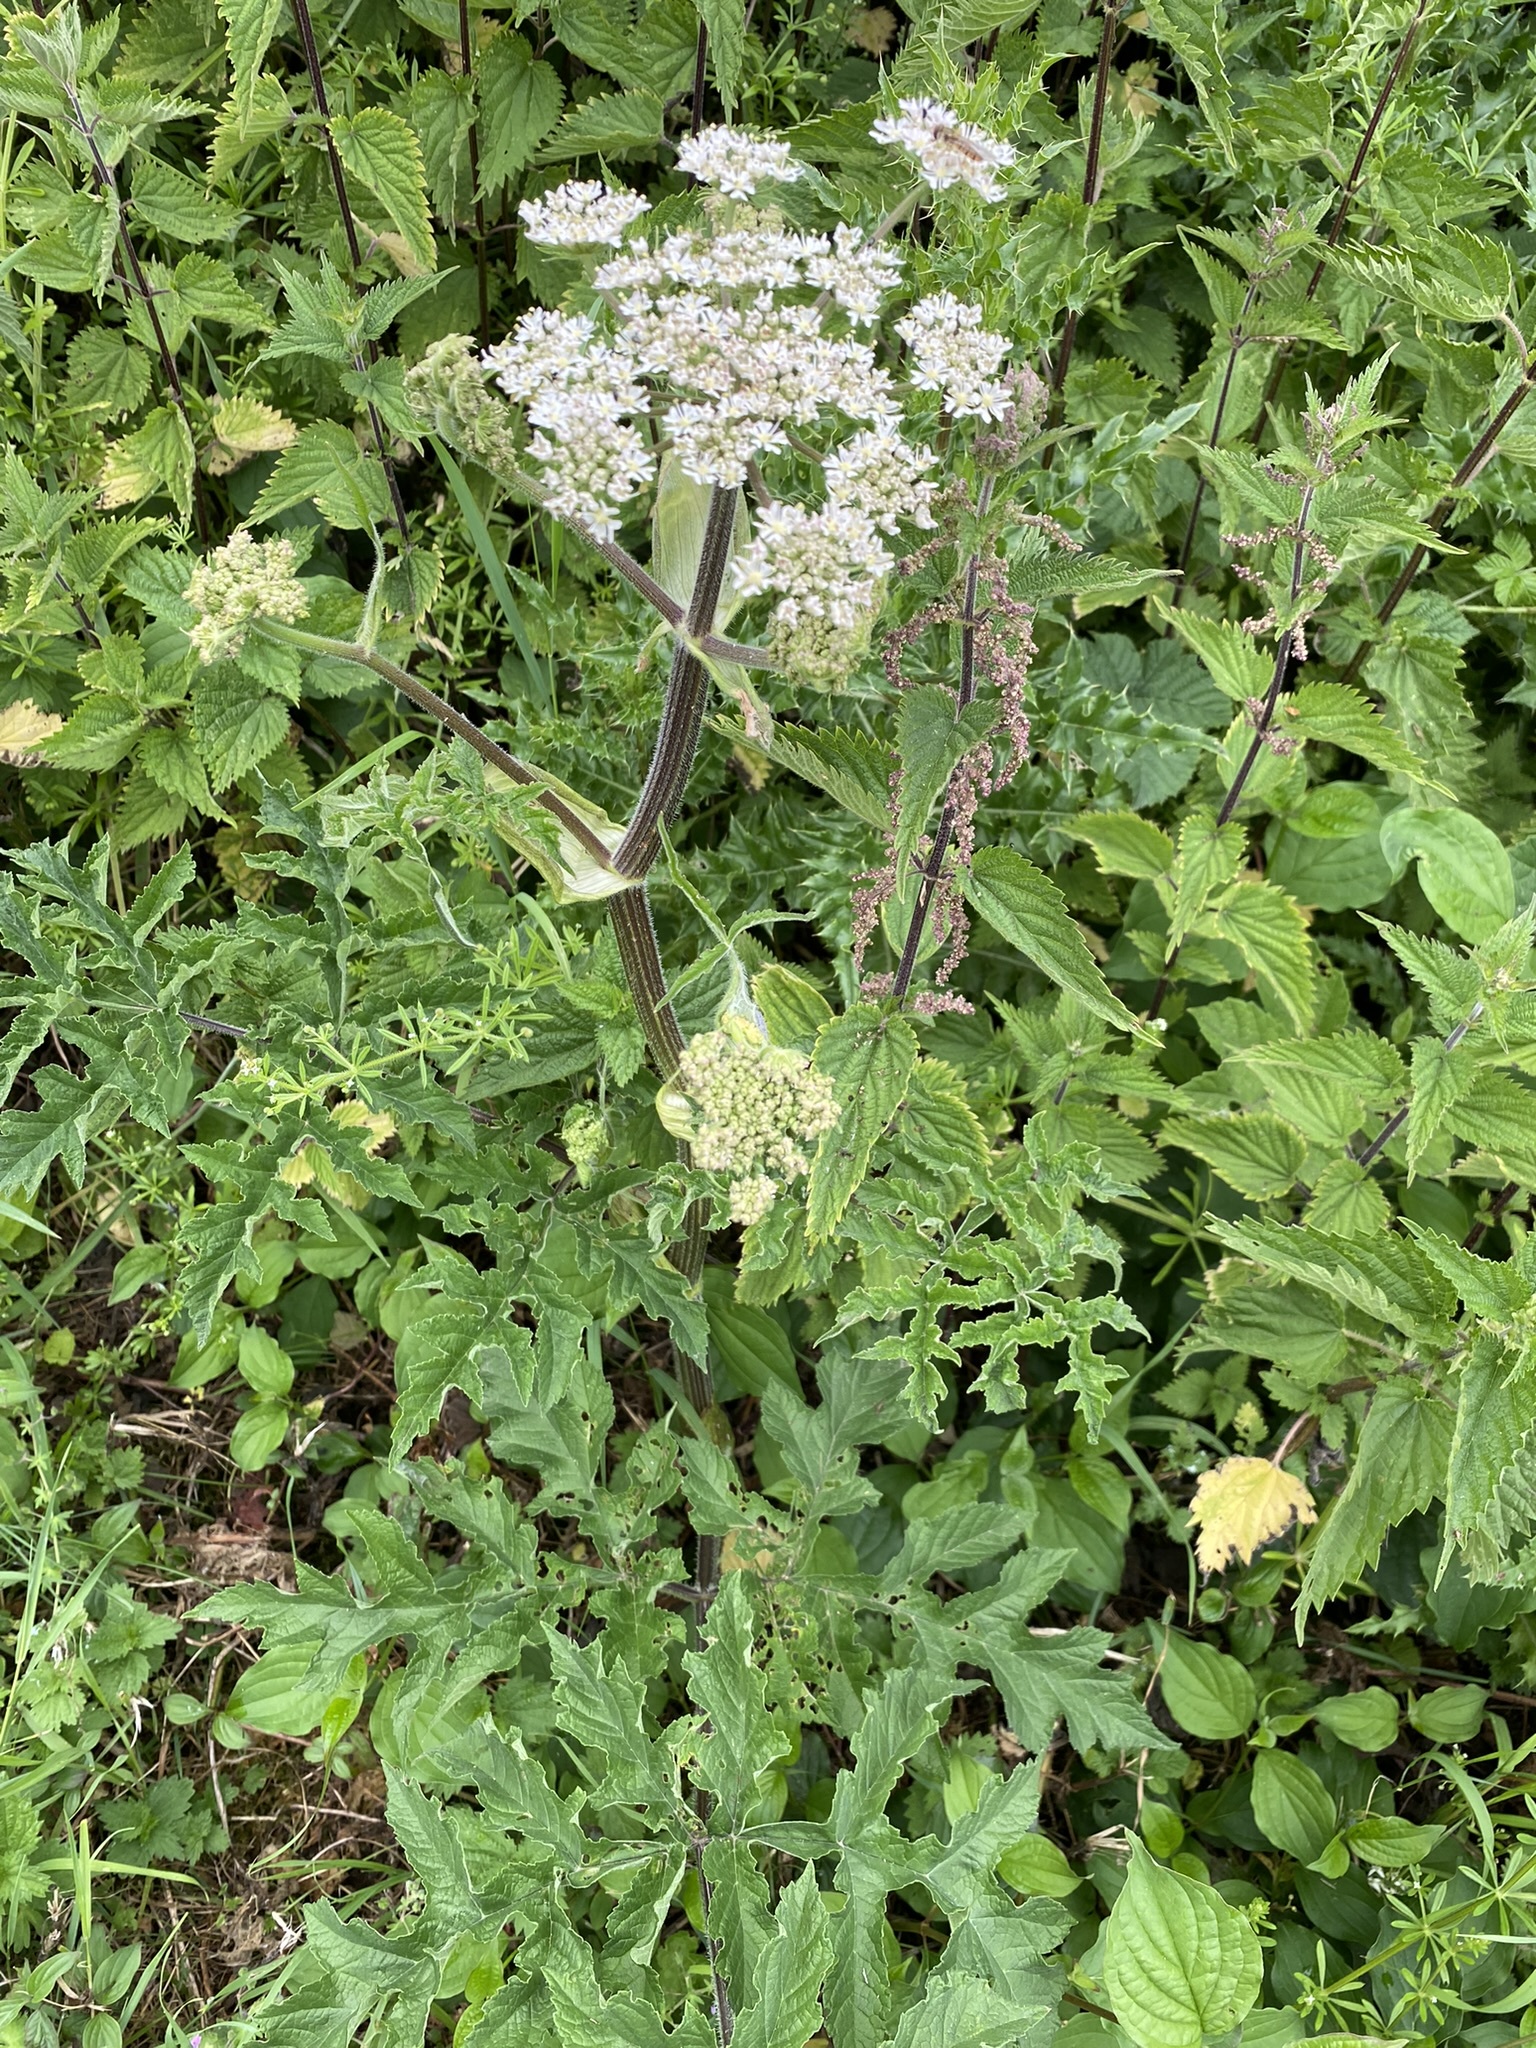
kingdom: Plantae
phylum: Tracheophyta
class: Magnoliopsida
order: Apiales
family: Apiaceae
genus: Heracleum
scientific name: Heracleum sphondylium
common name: Hogweed
